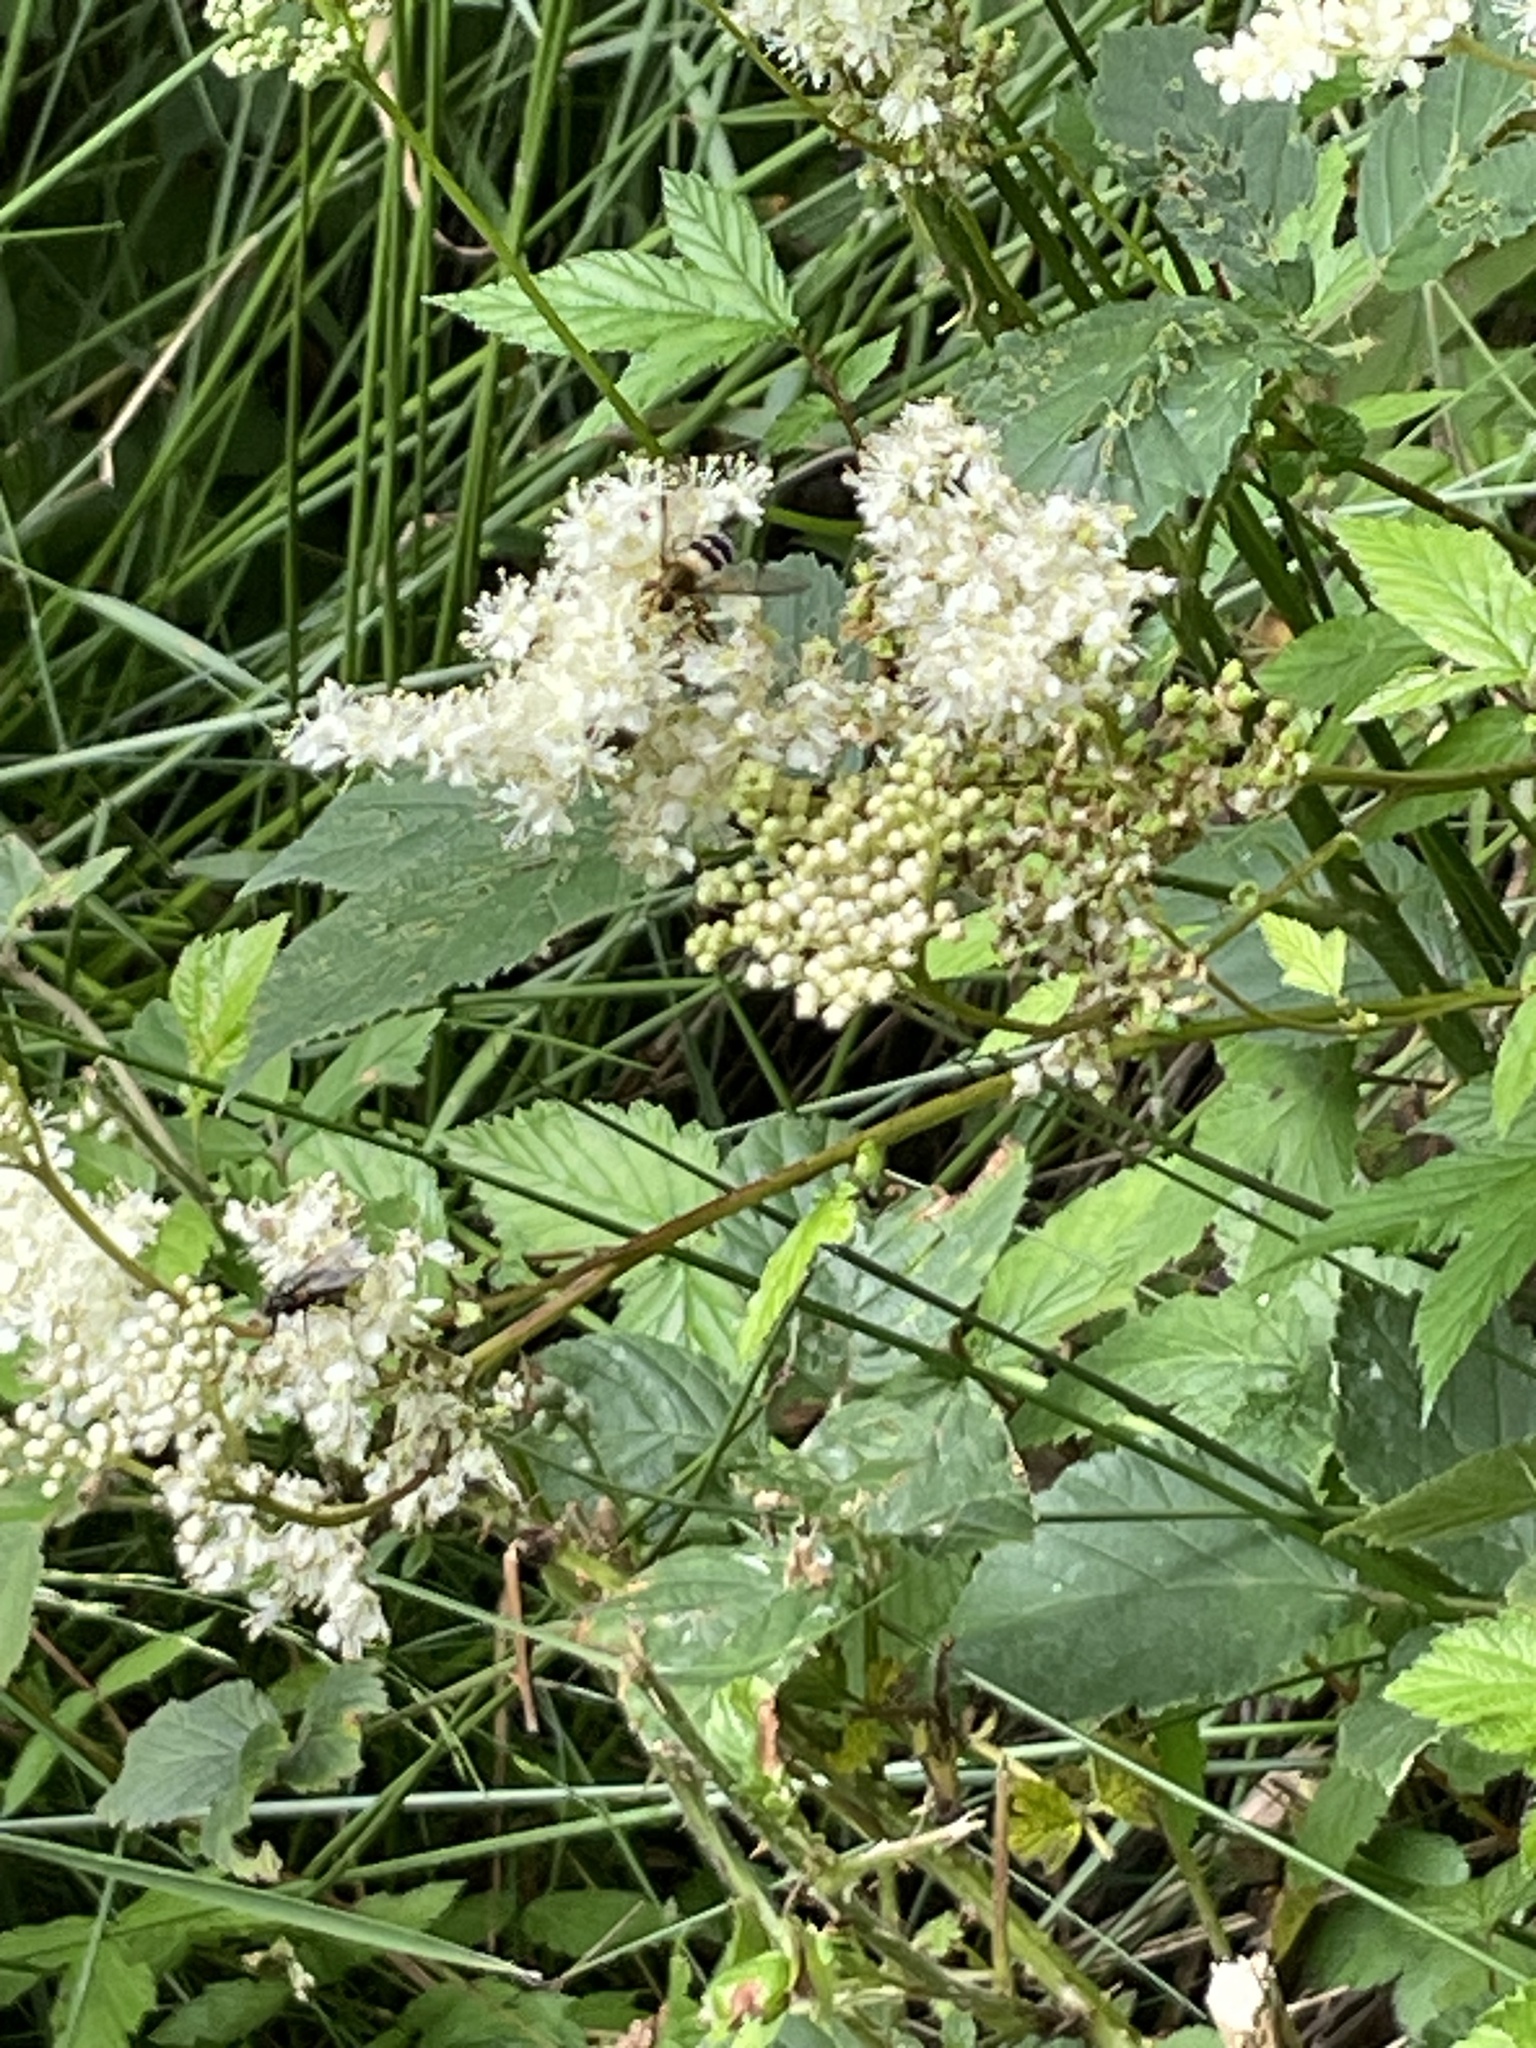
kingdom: Plantae
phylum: Tracheophyta
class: Magnoliopsida
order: Rosales
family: Rosaceae
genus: Filipendula
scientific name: Filipendula ulmaria
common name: Meadowsweet
